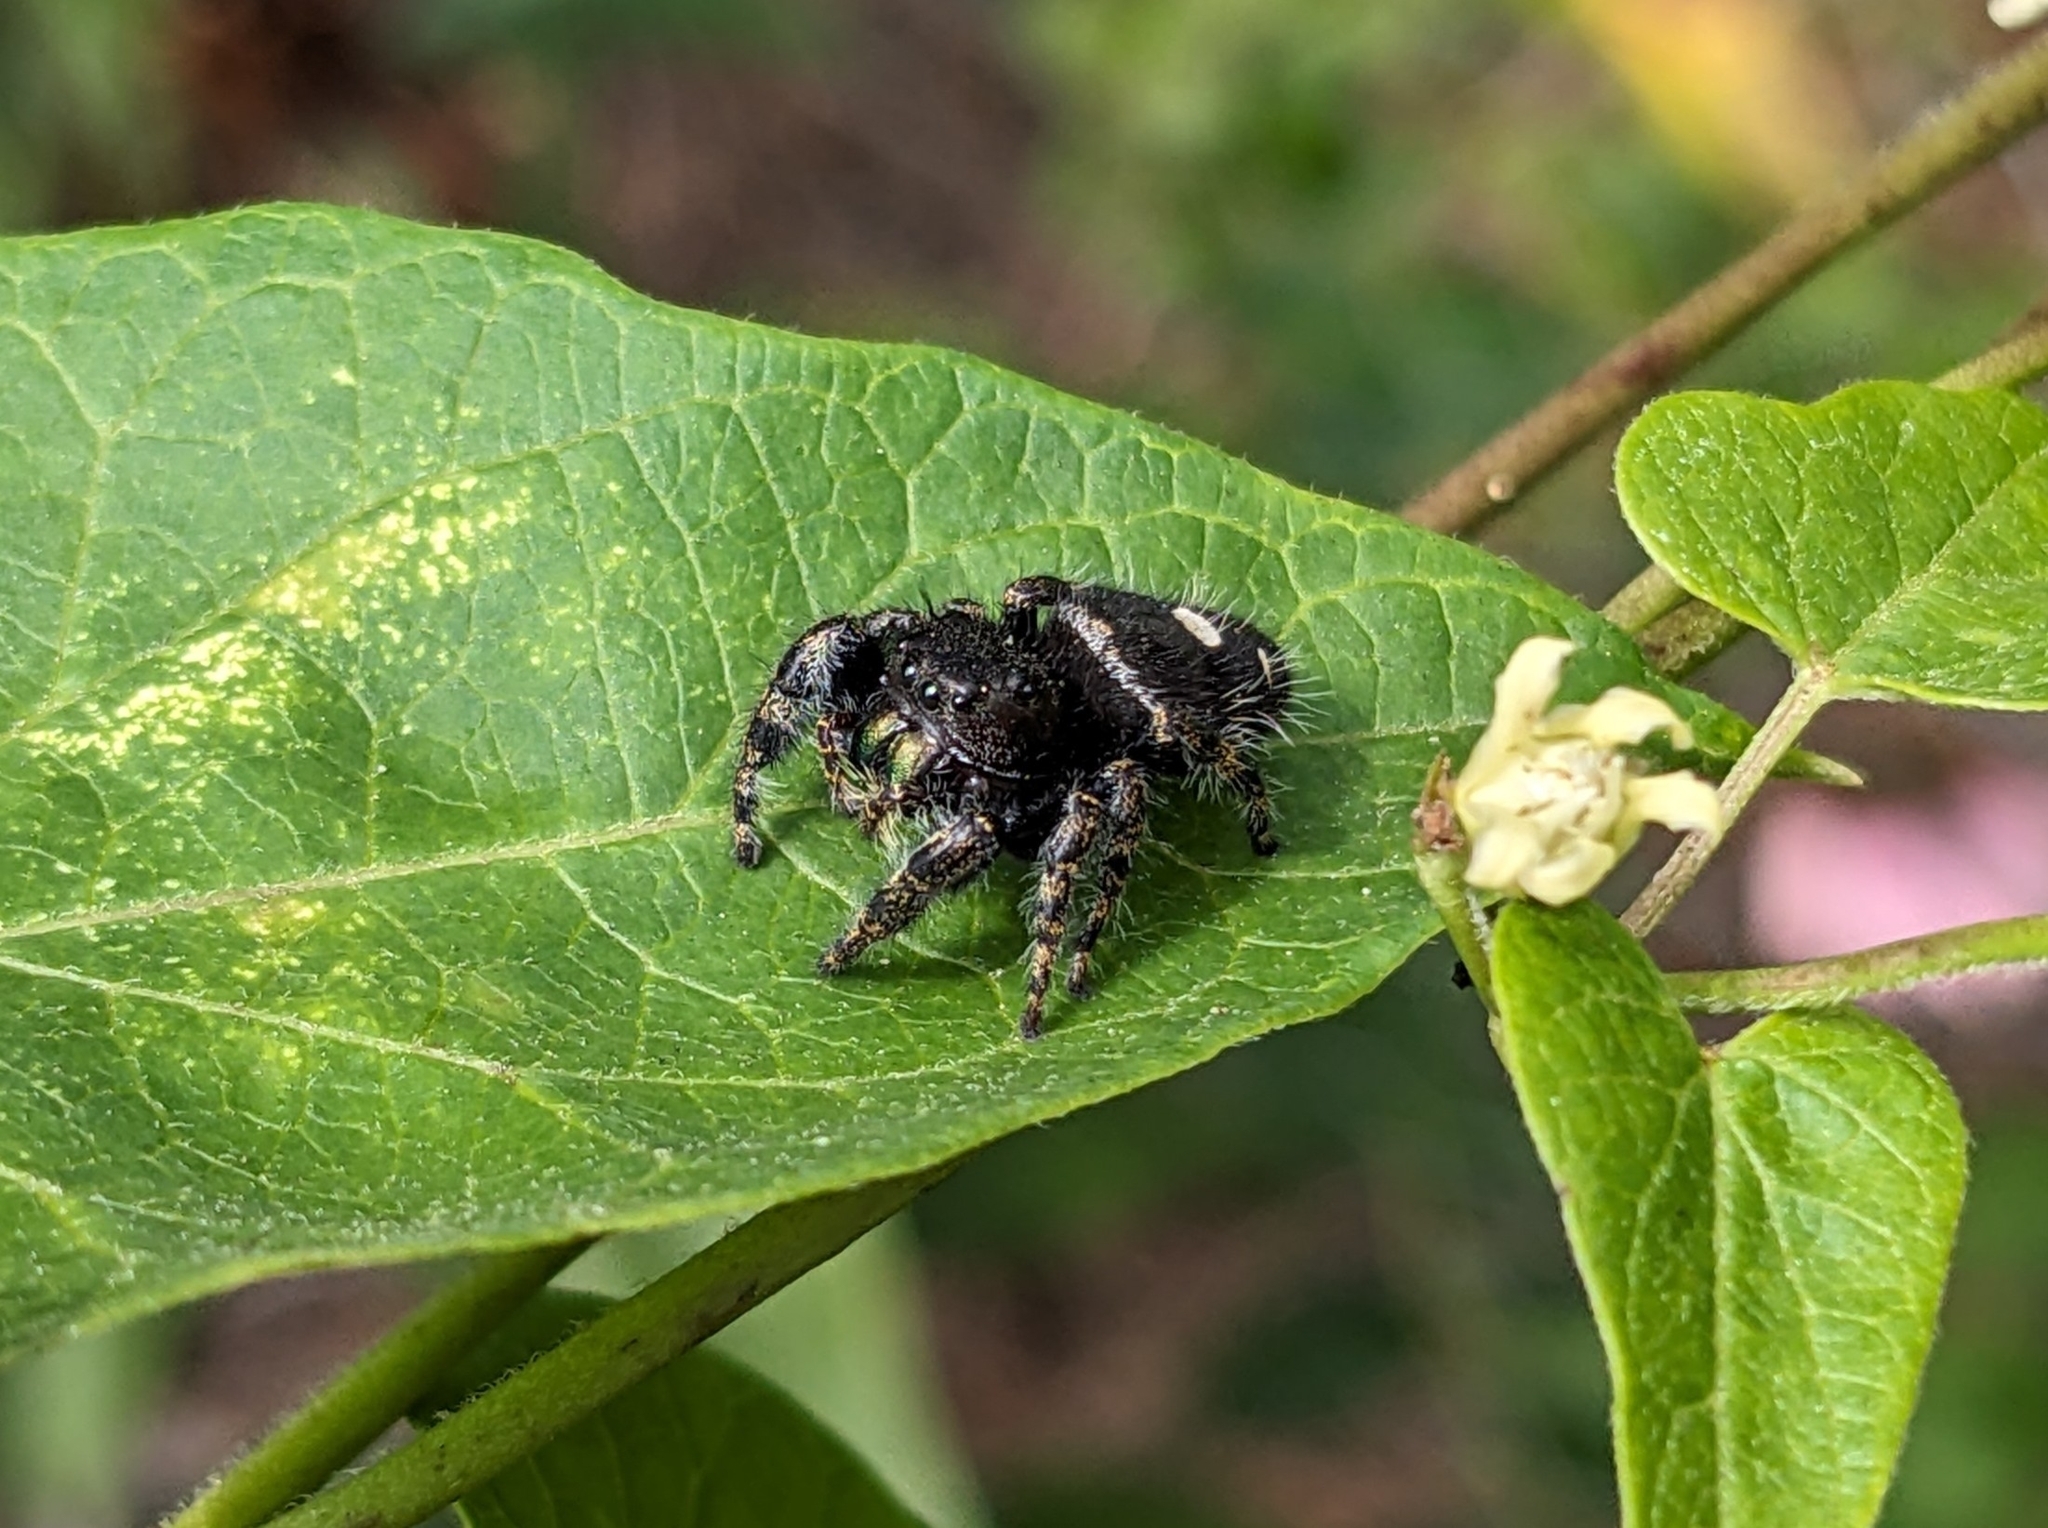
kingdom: Animalia
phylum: Arthropoda
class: Arachnida
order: Araneae
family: Salticidae
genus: Phidippus
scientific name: Phidippus audax
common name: Bold jumper
